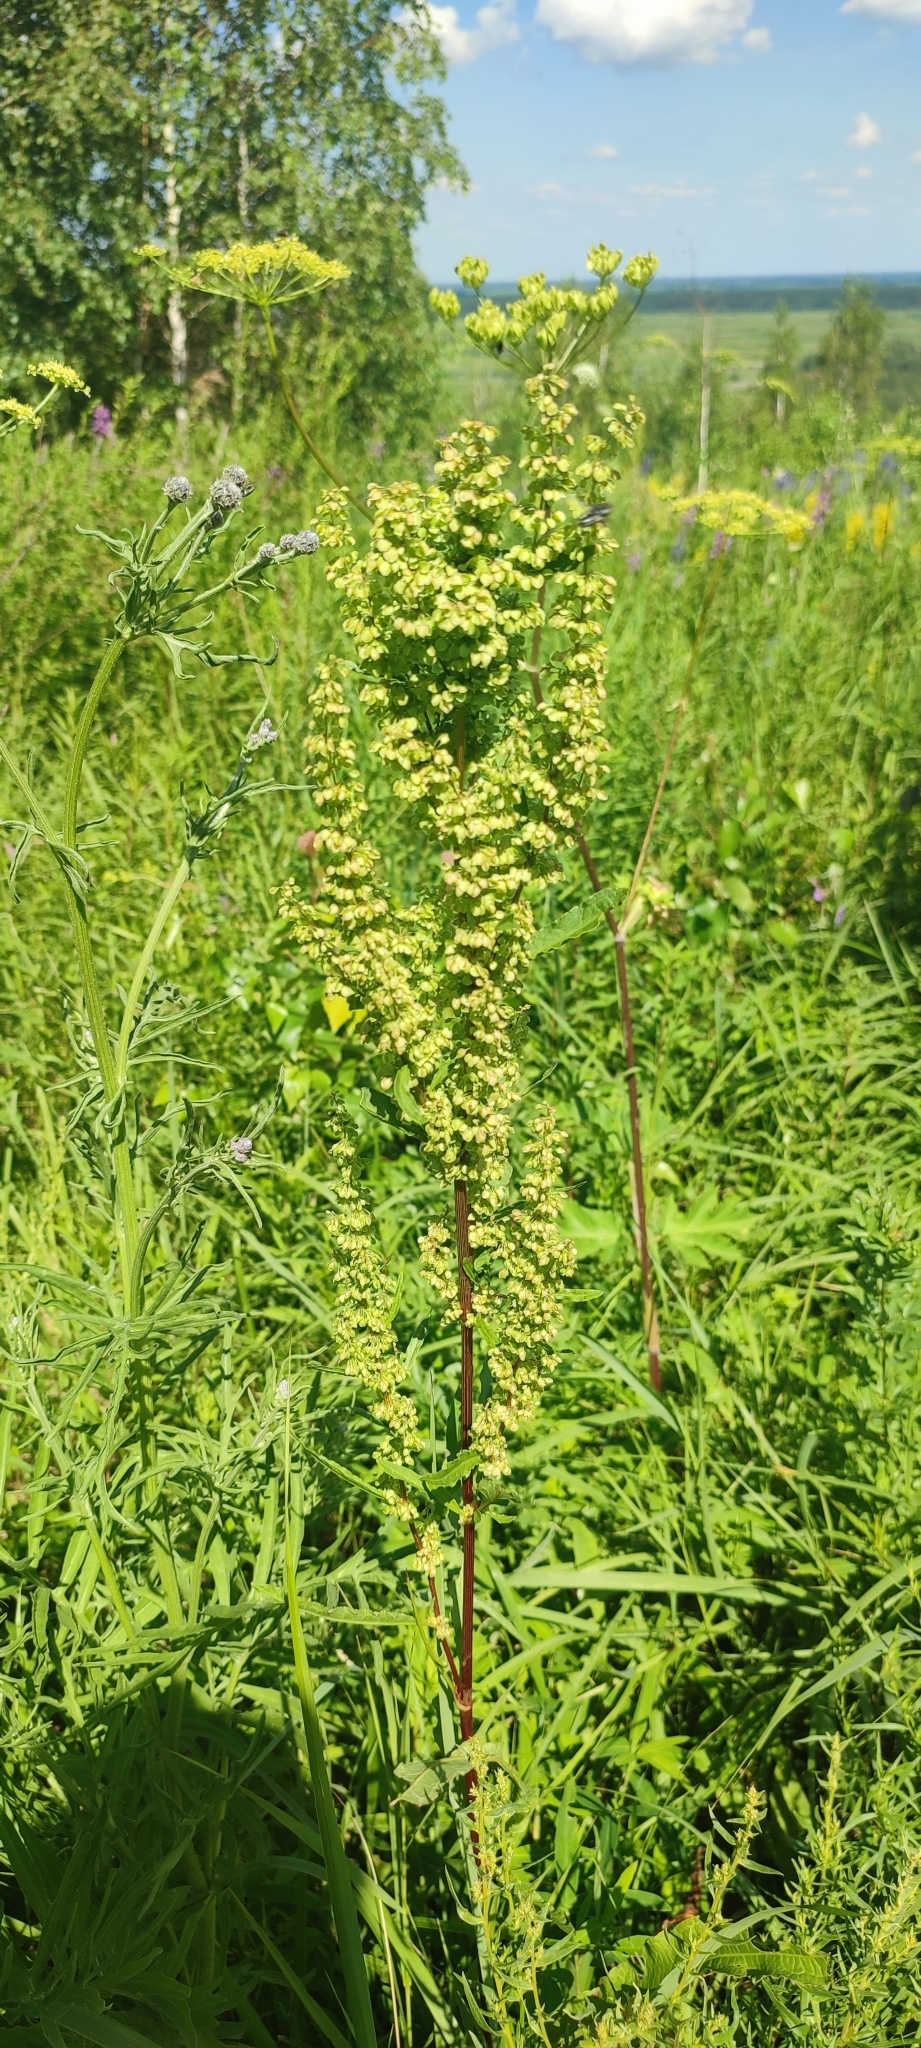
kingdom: Plantae
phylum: Tracheophyta
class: Magnoliopsida
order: Caryophyllales
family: Polygonaceae
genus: Rumex
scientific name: Rumex pseudonatronatus
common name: Field dock
